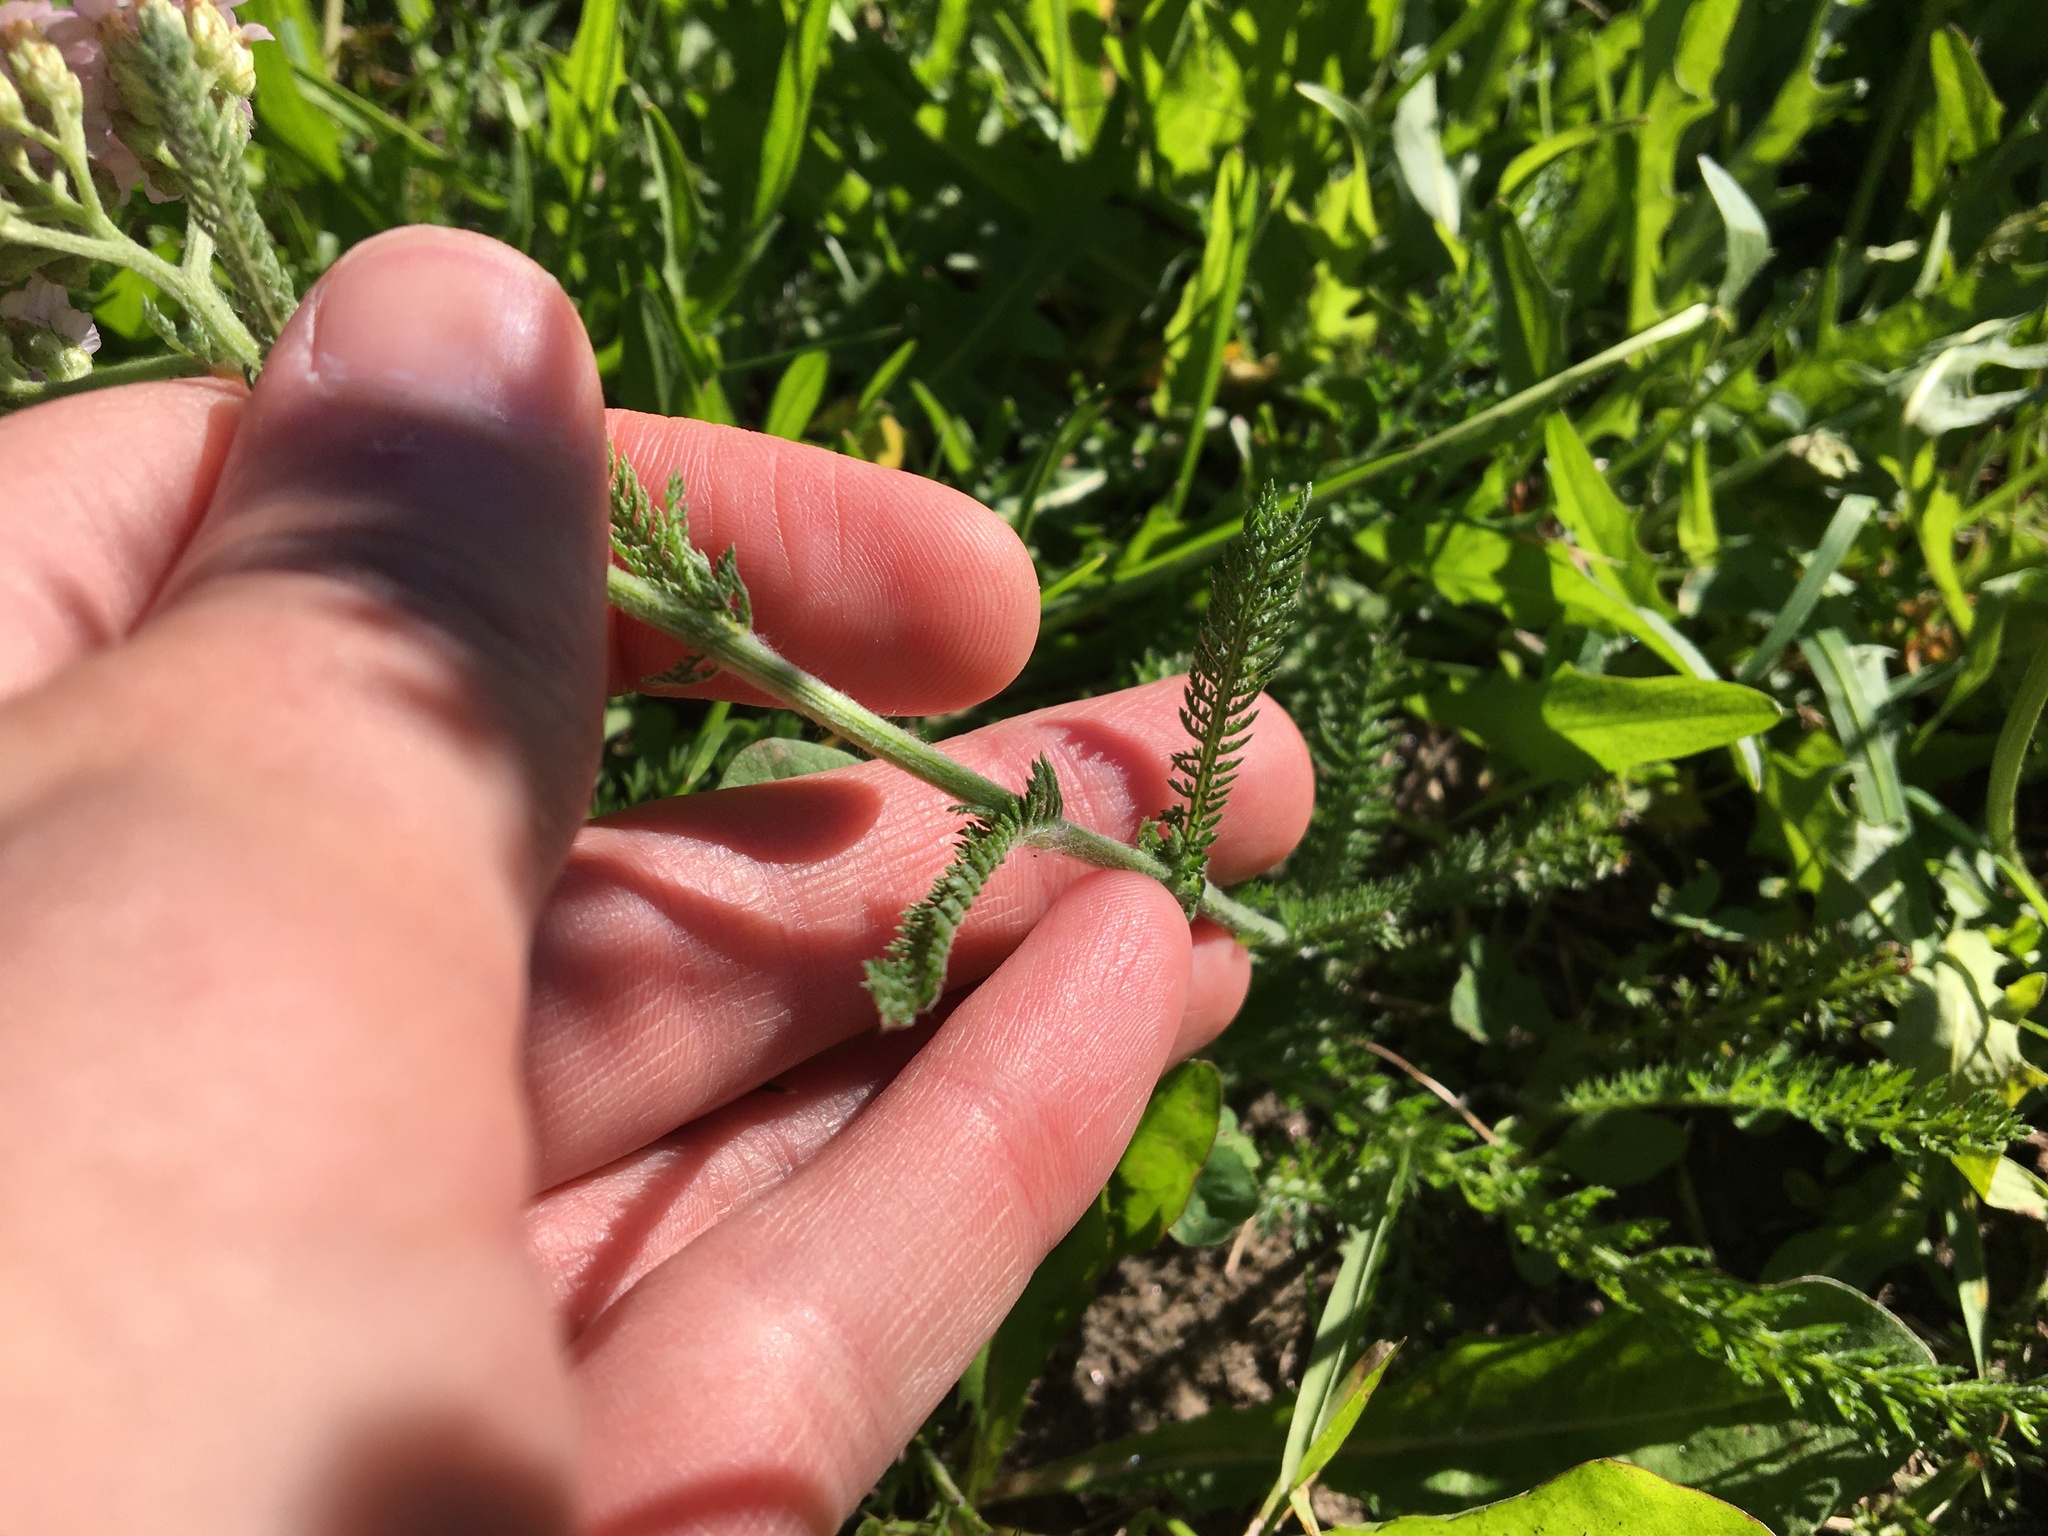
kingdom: Plantae
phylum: Tracheophyta
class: Magnoliopsida
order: Asterales
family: Asteraceae
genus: Achillea
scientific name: Achillea millefolium
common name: Yarrow
